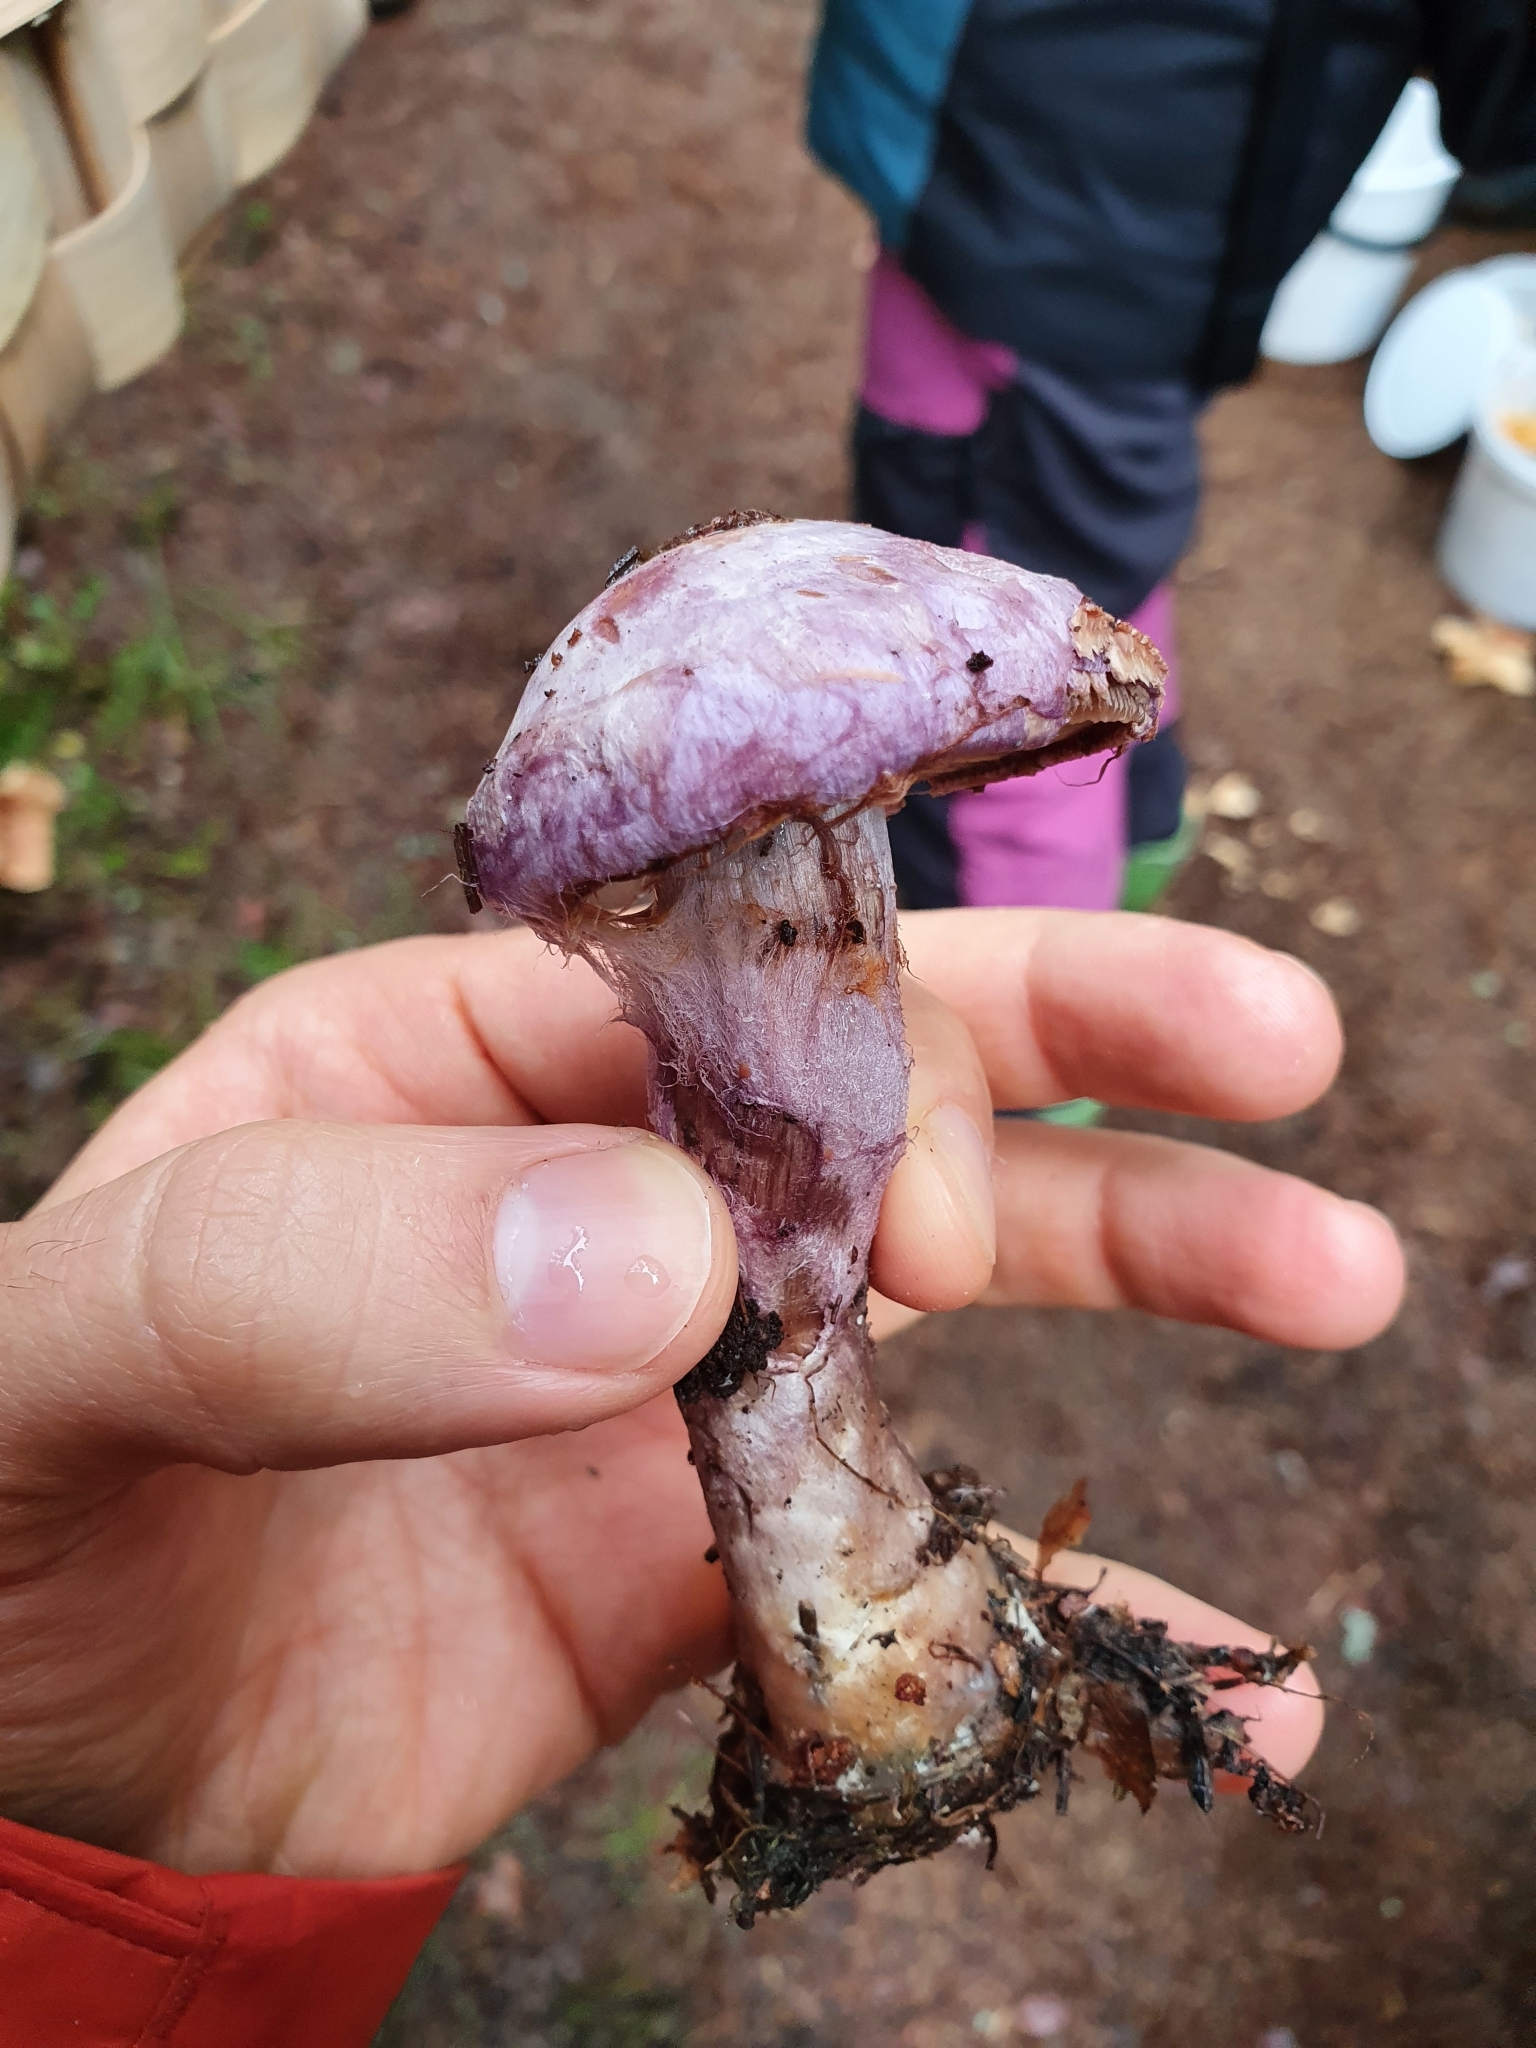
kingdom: Fungi
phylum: Basidiomycota
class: Agaricomycetes
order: Agaricales
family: Cortinariaceae
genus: Cortinarius
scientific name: Cortinarius traganus
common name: Gassy webcap
